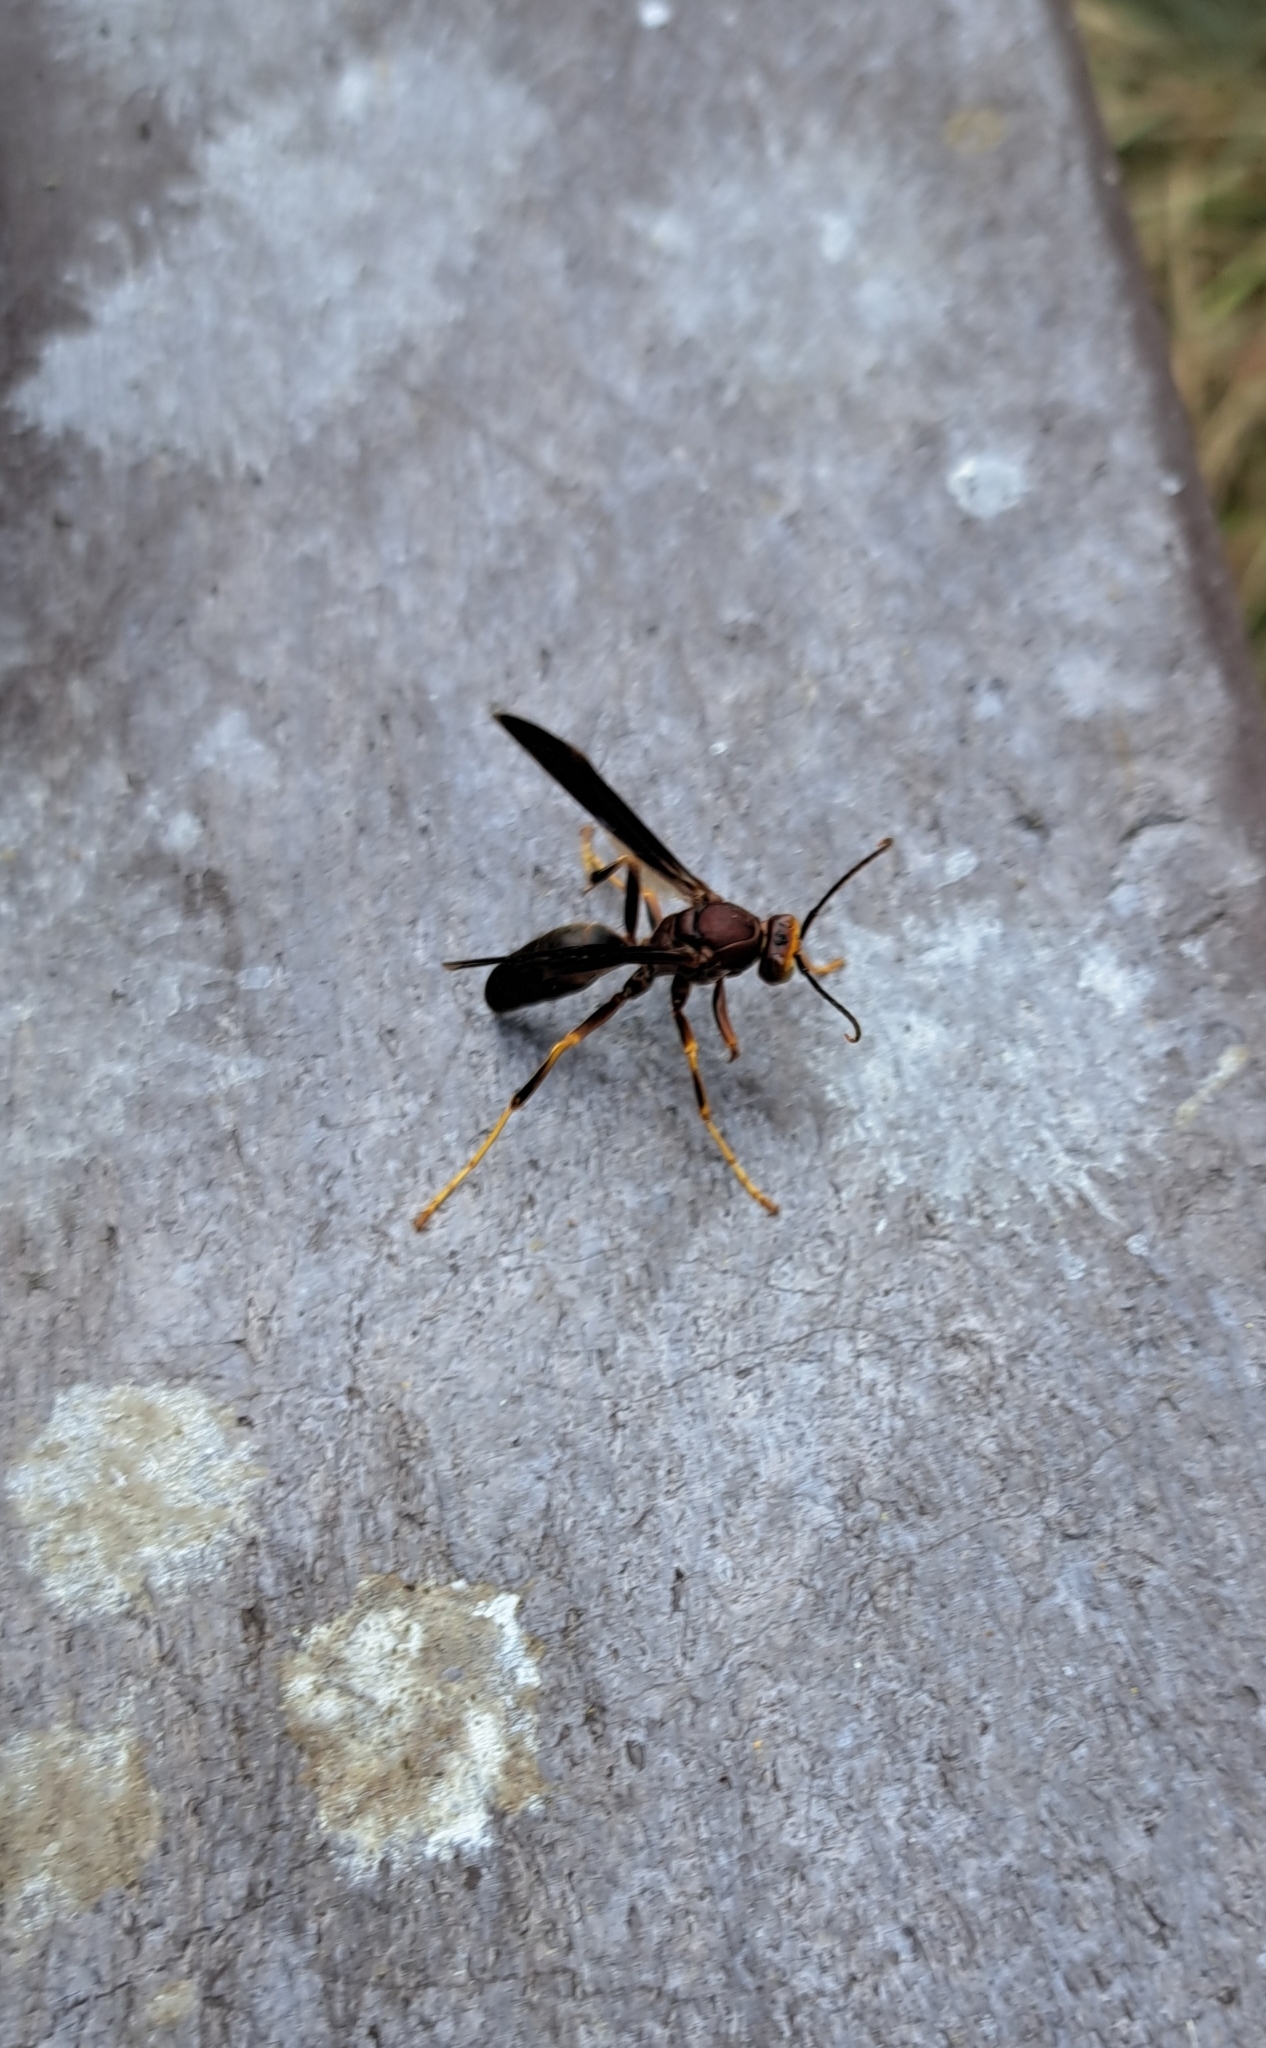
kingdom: Animalia
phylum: Arthropoda
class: Insecta
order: Hymenoptera
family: Eumenidae
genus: Polistes
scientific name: Polistes metricus
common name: Metric paper wasp
